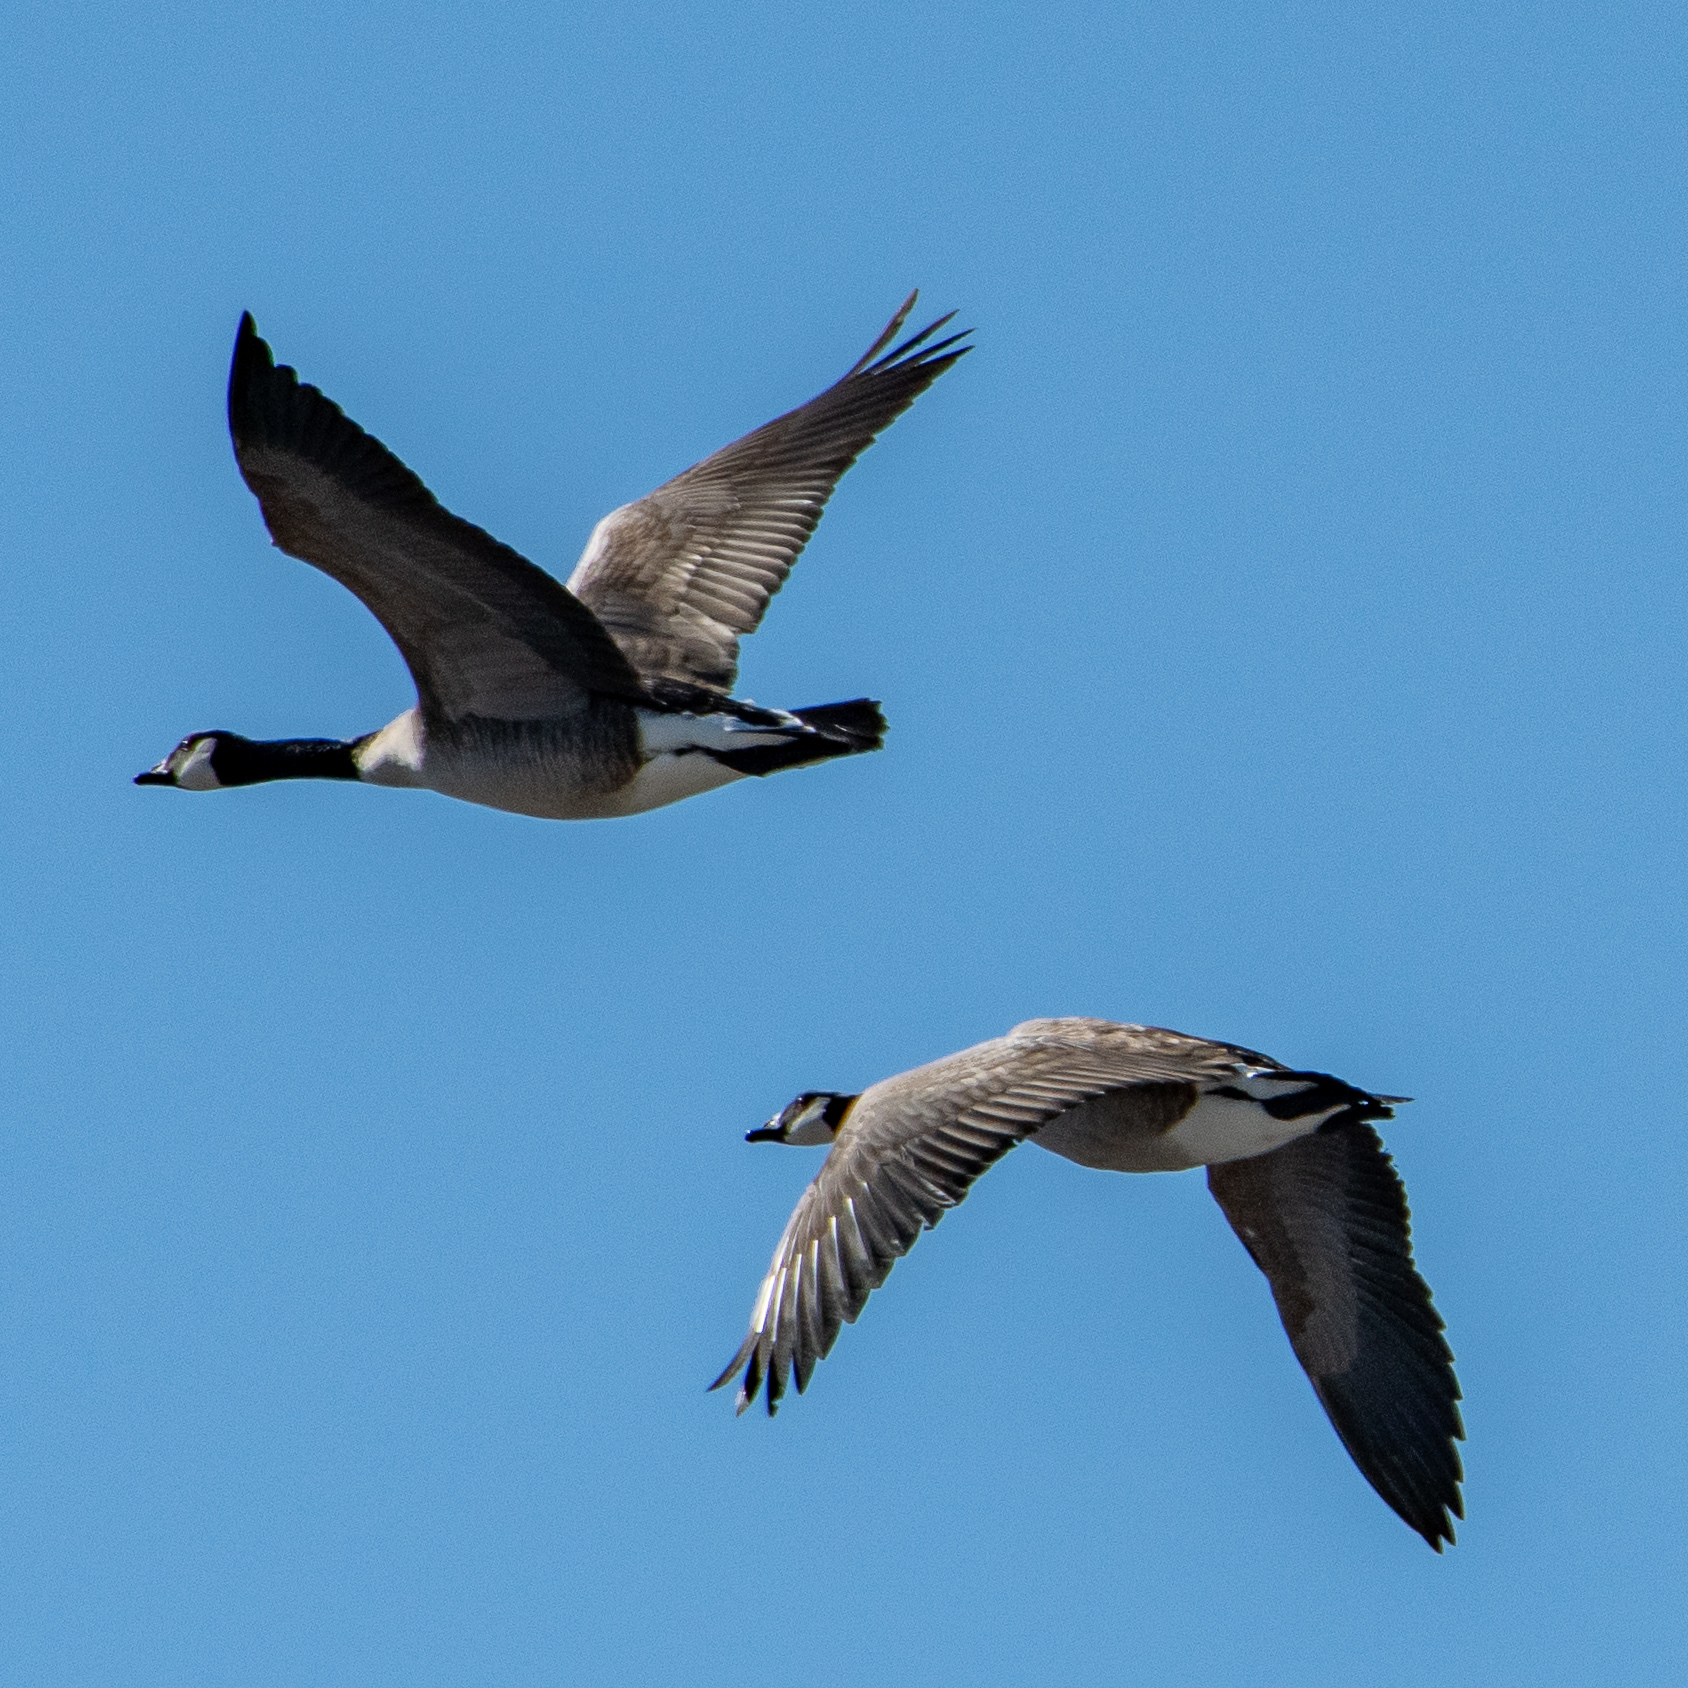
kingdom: Animalia
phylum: Chordata
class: Aves
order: Anseriformes
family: Anatidae
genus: Branta
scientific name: Branta canadensis
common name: Canada goose
